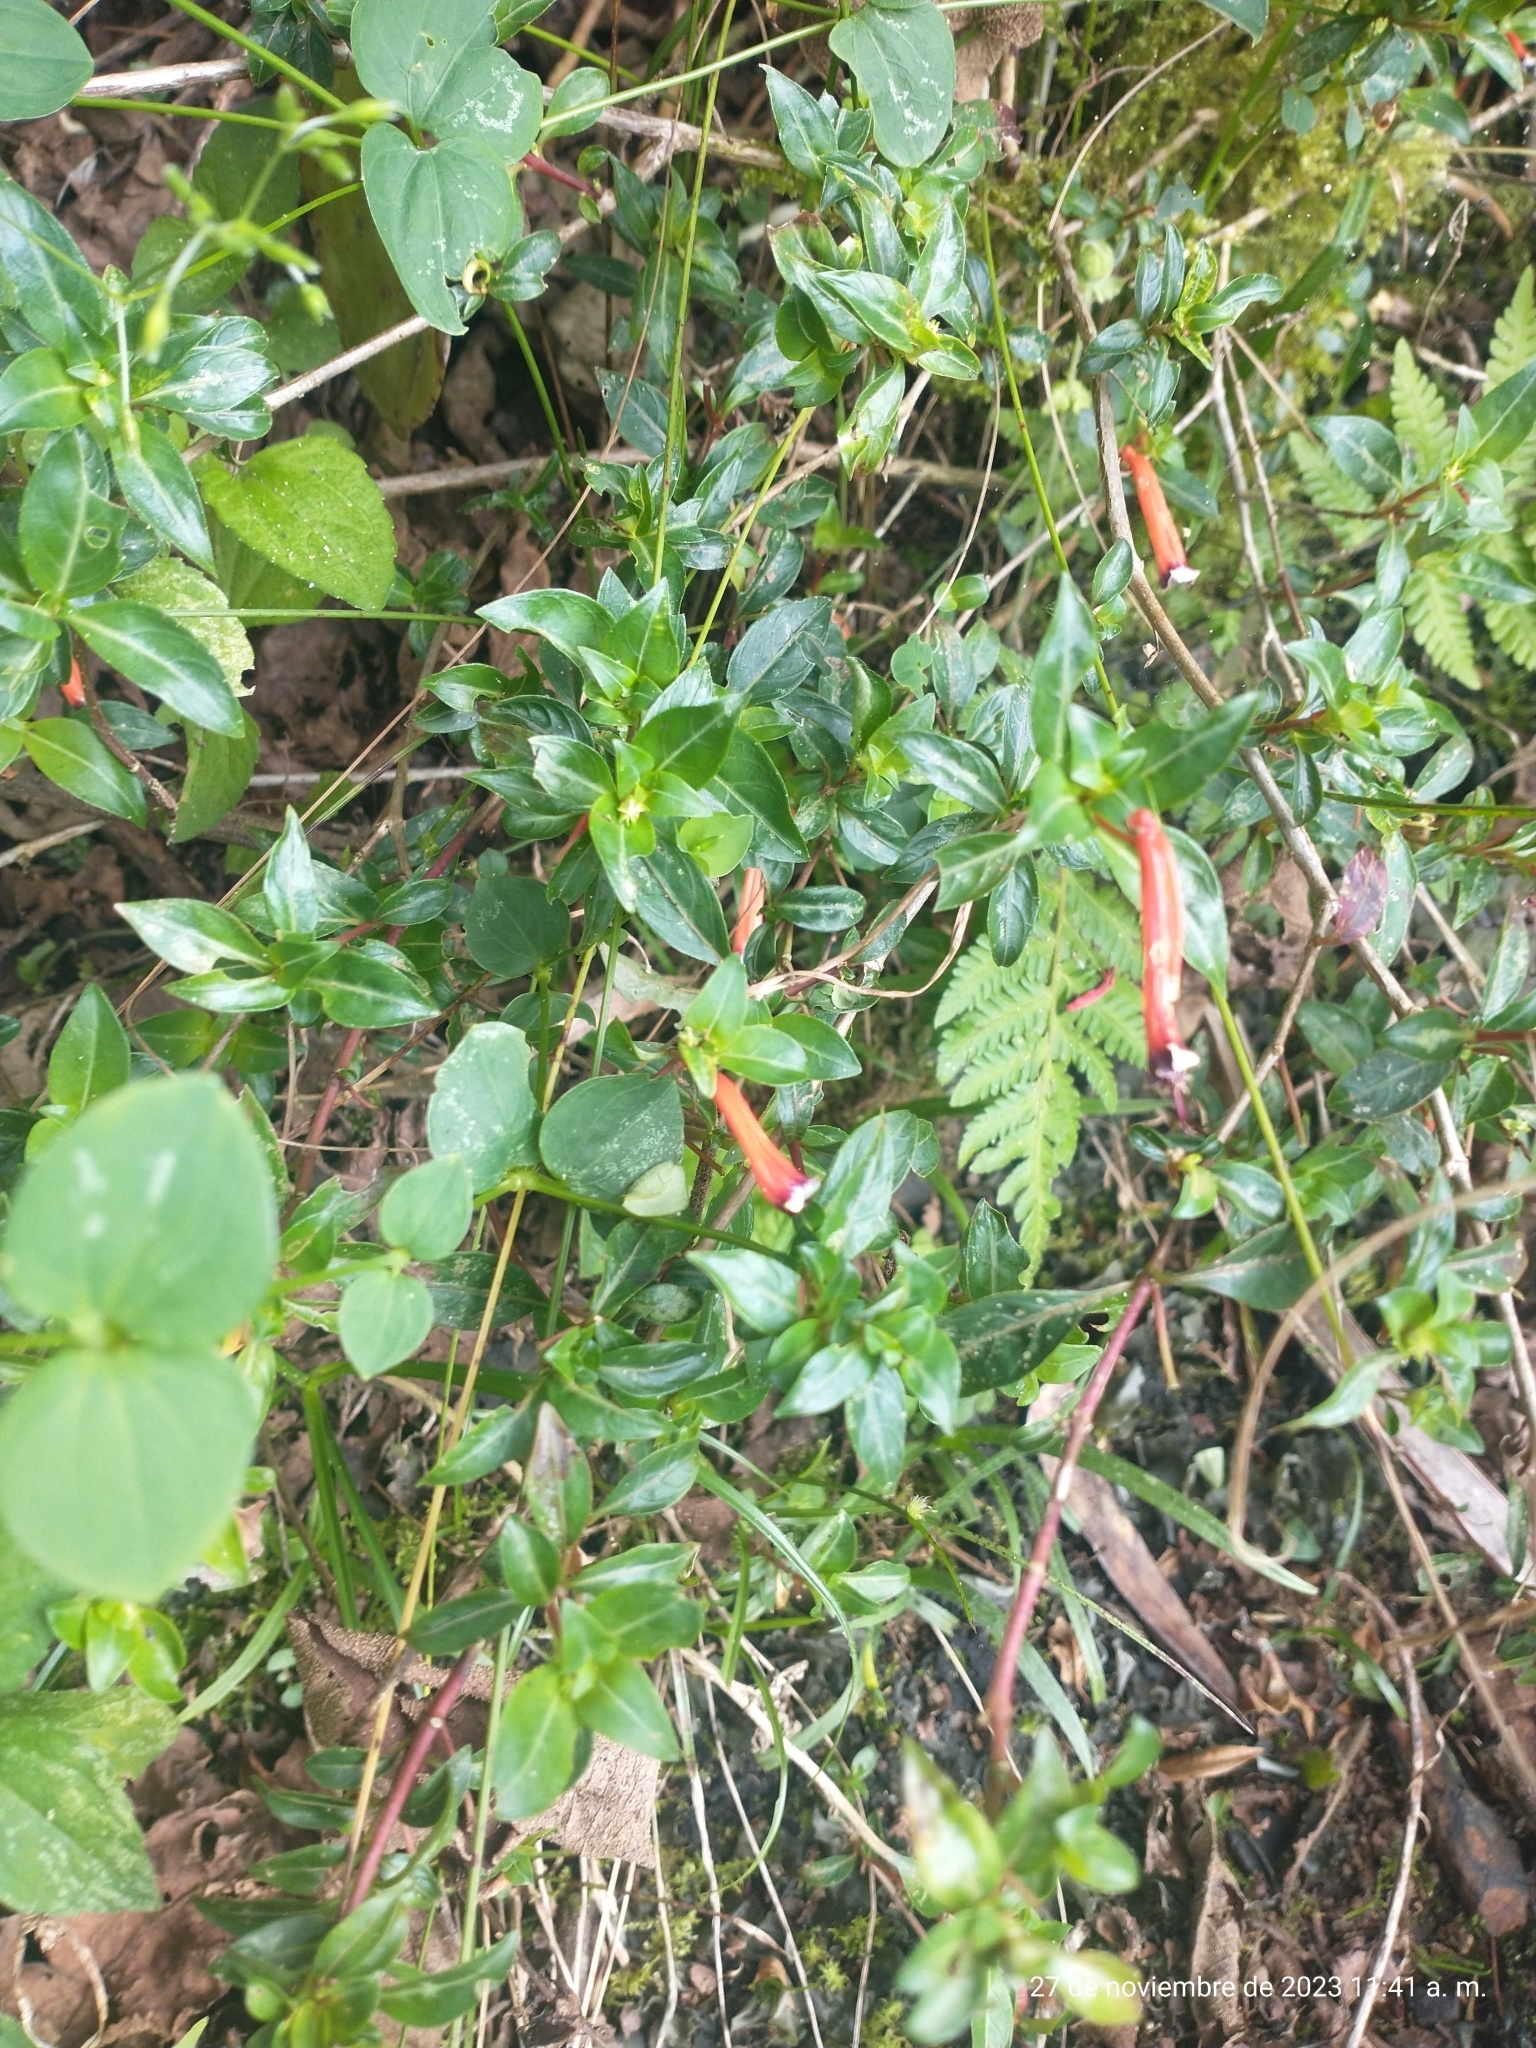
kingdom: Plantae
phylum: Tracheophyta
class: Magnoliopsida
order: Myrtales
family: Lythraceae
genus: Cuphea
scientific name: Cuphea ignea
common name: Cigar flower
